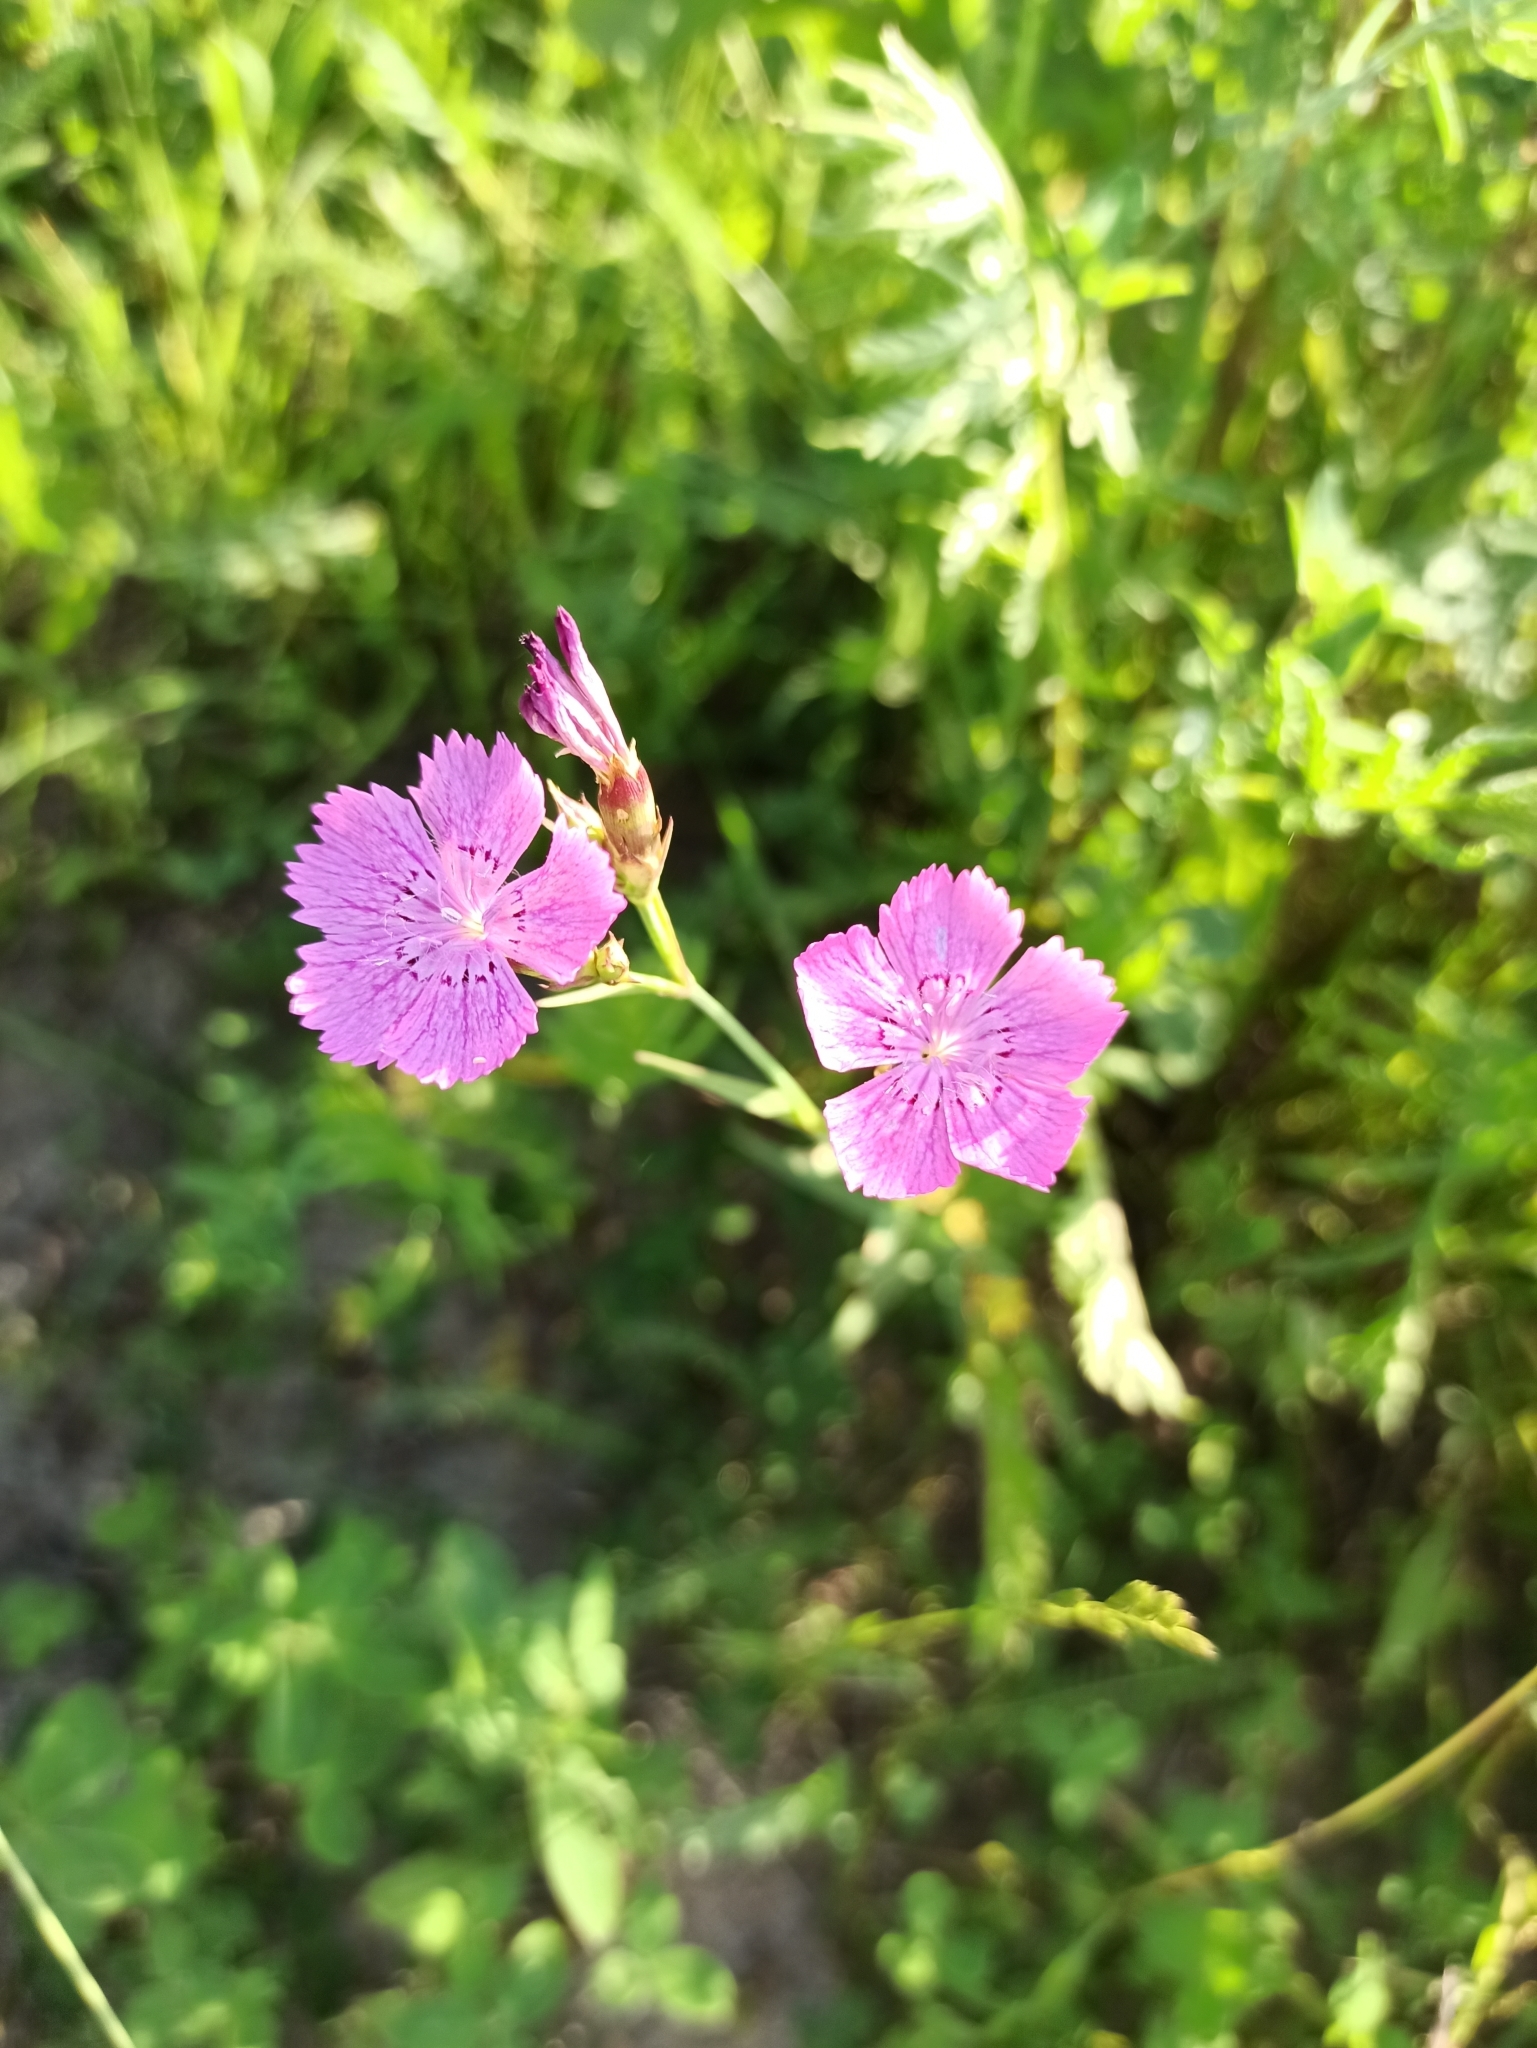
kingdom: Plantae
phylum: Tracheophyta
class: Magnoliopsida
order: Caryophyllales
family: Caryophyllaceae
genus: Dianthus
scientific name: Dianthus chinensis
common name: Rainbow pink
